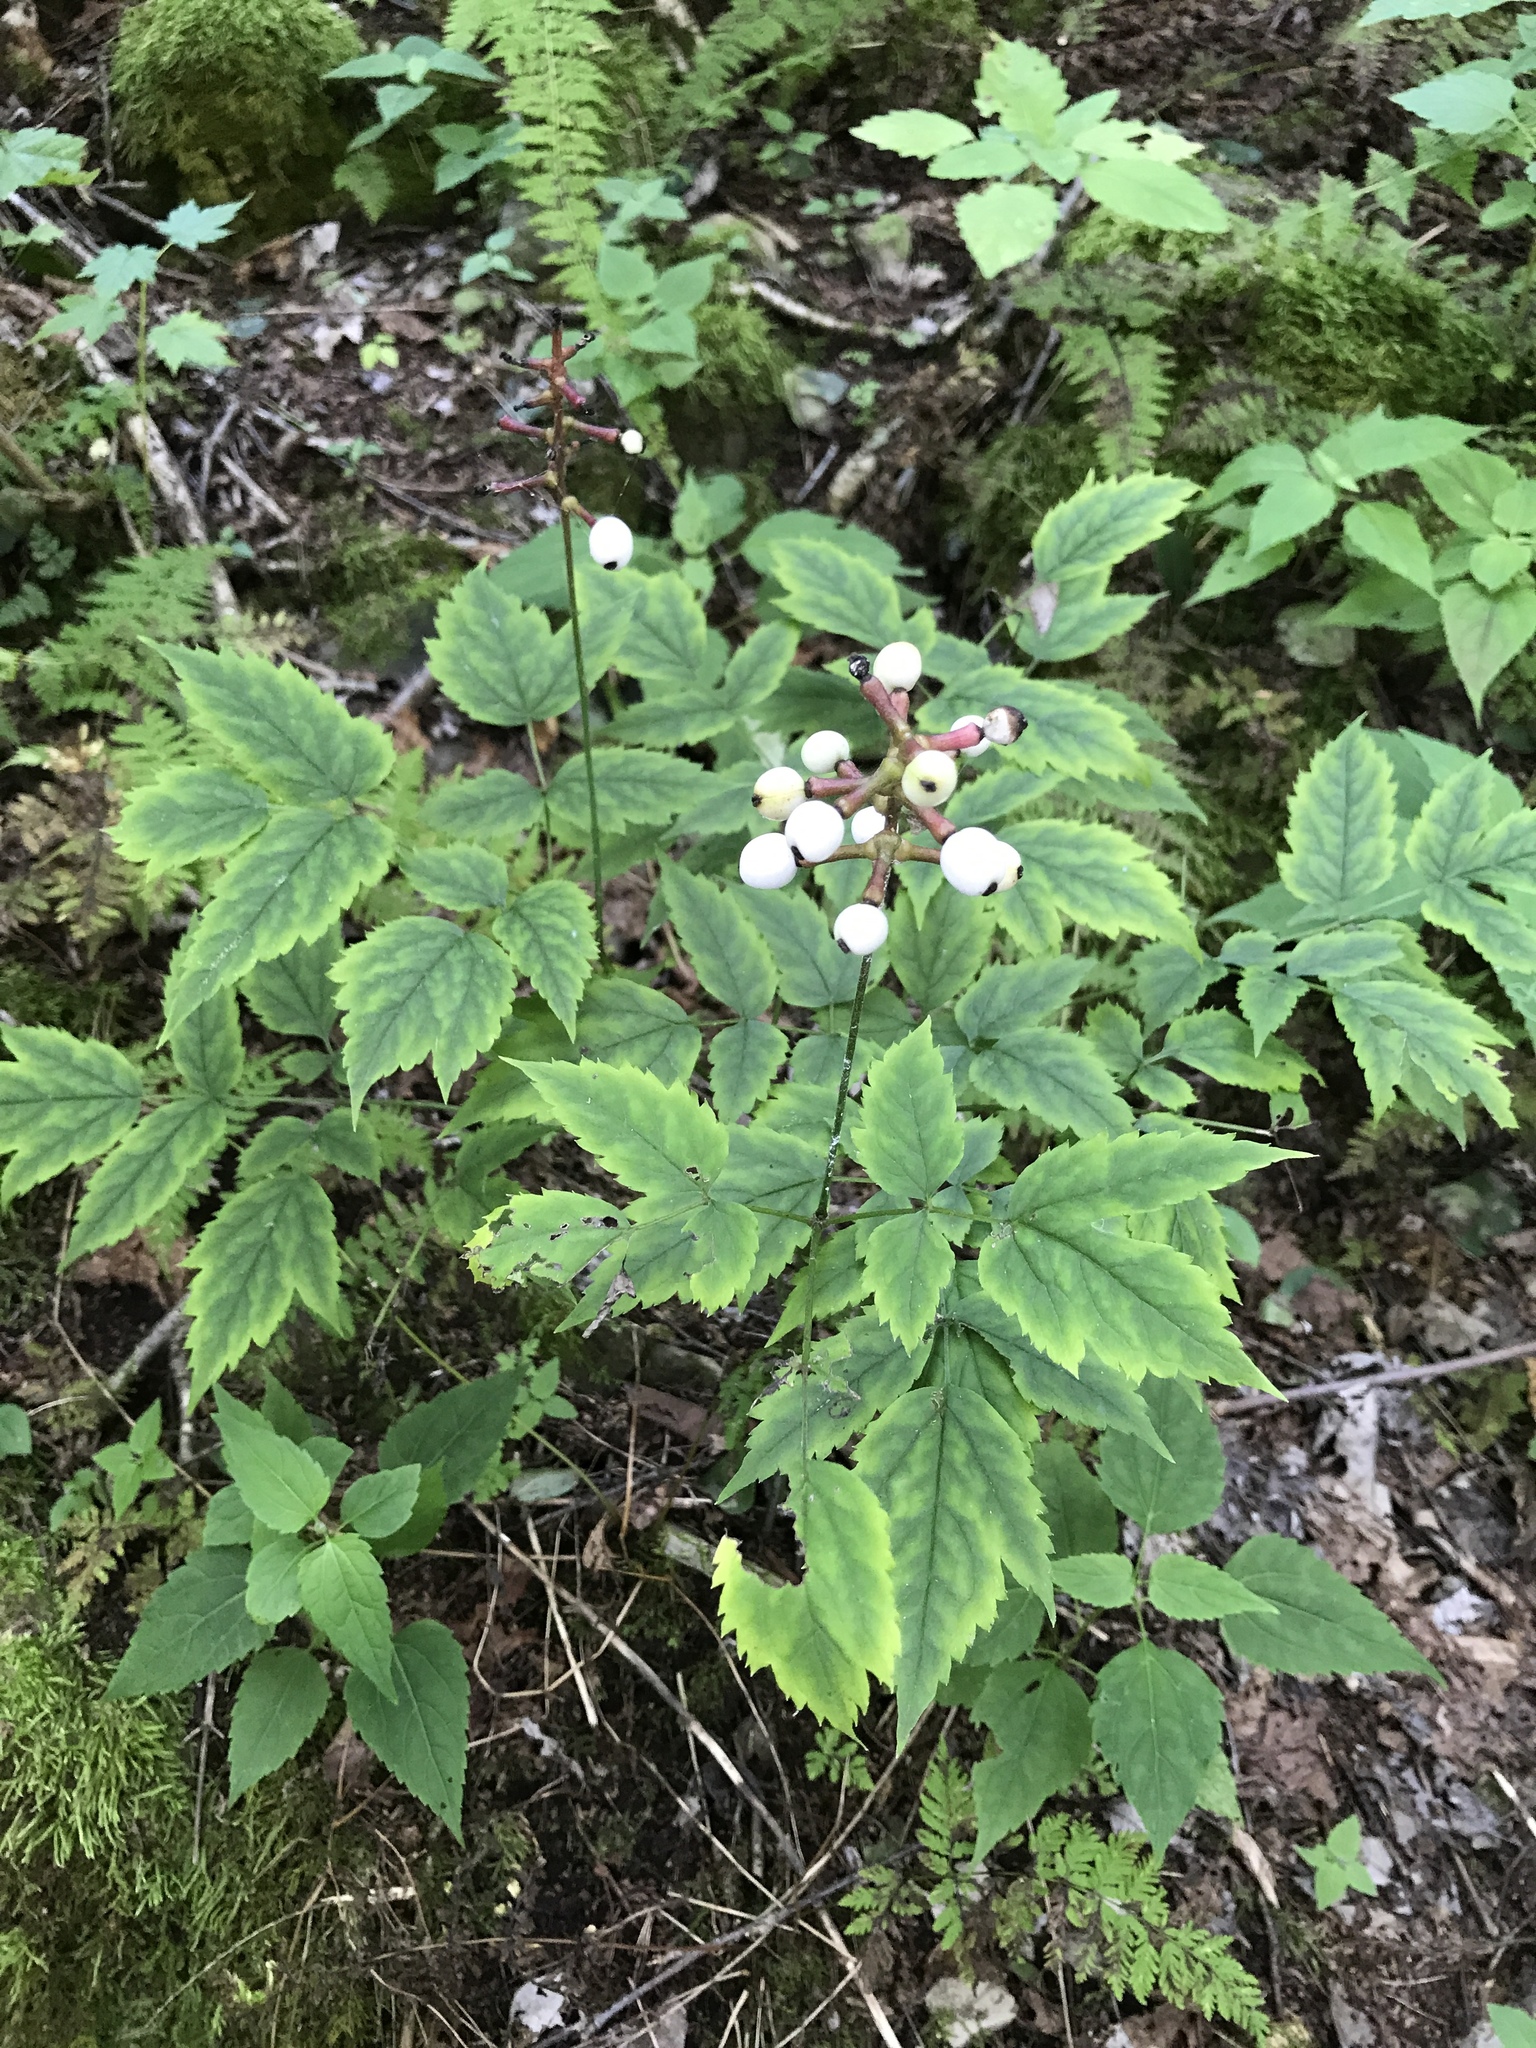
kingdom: Plantae
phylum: Tracheophyta
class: Magnoliopsida
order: Ranunculales
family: Ranunculaceae
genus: Actaea
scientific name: Actaea pachypoda
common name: Doll's-eyes
